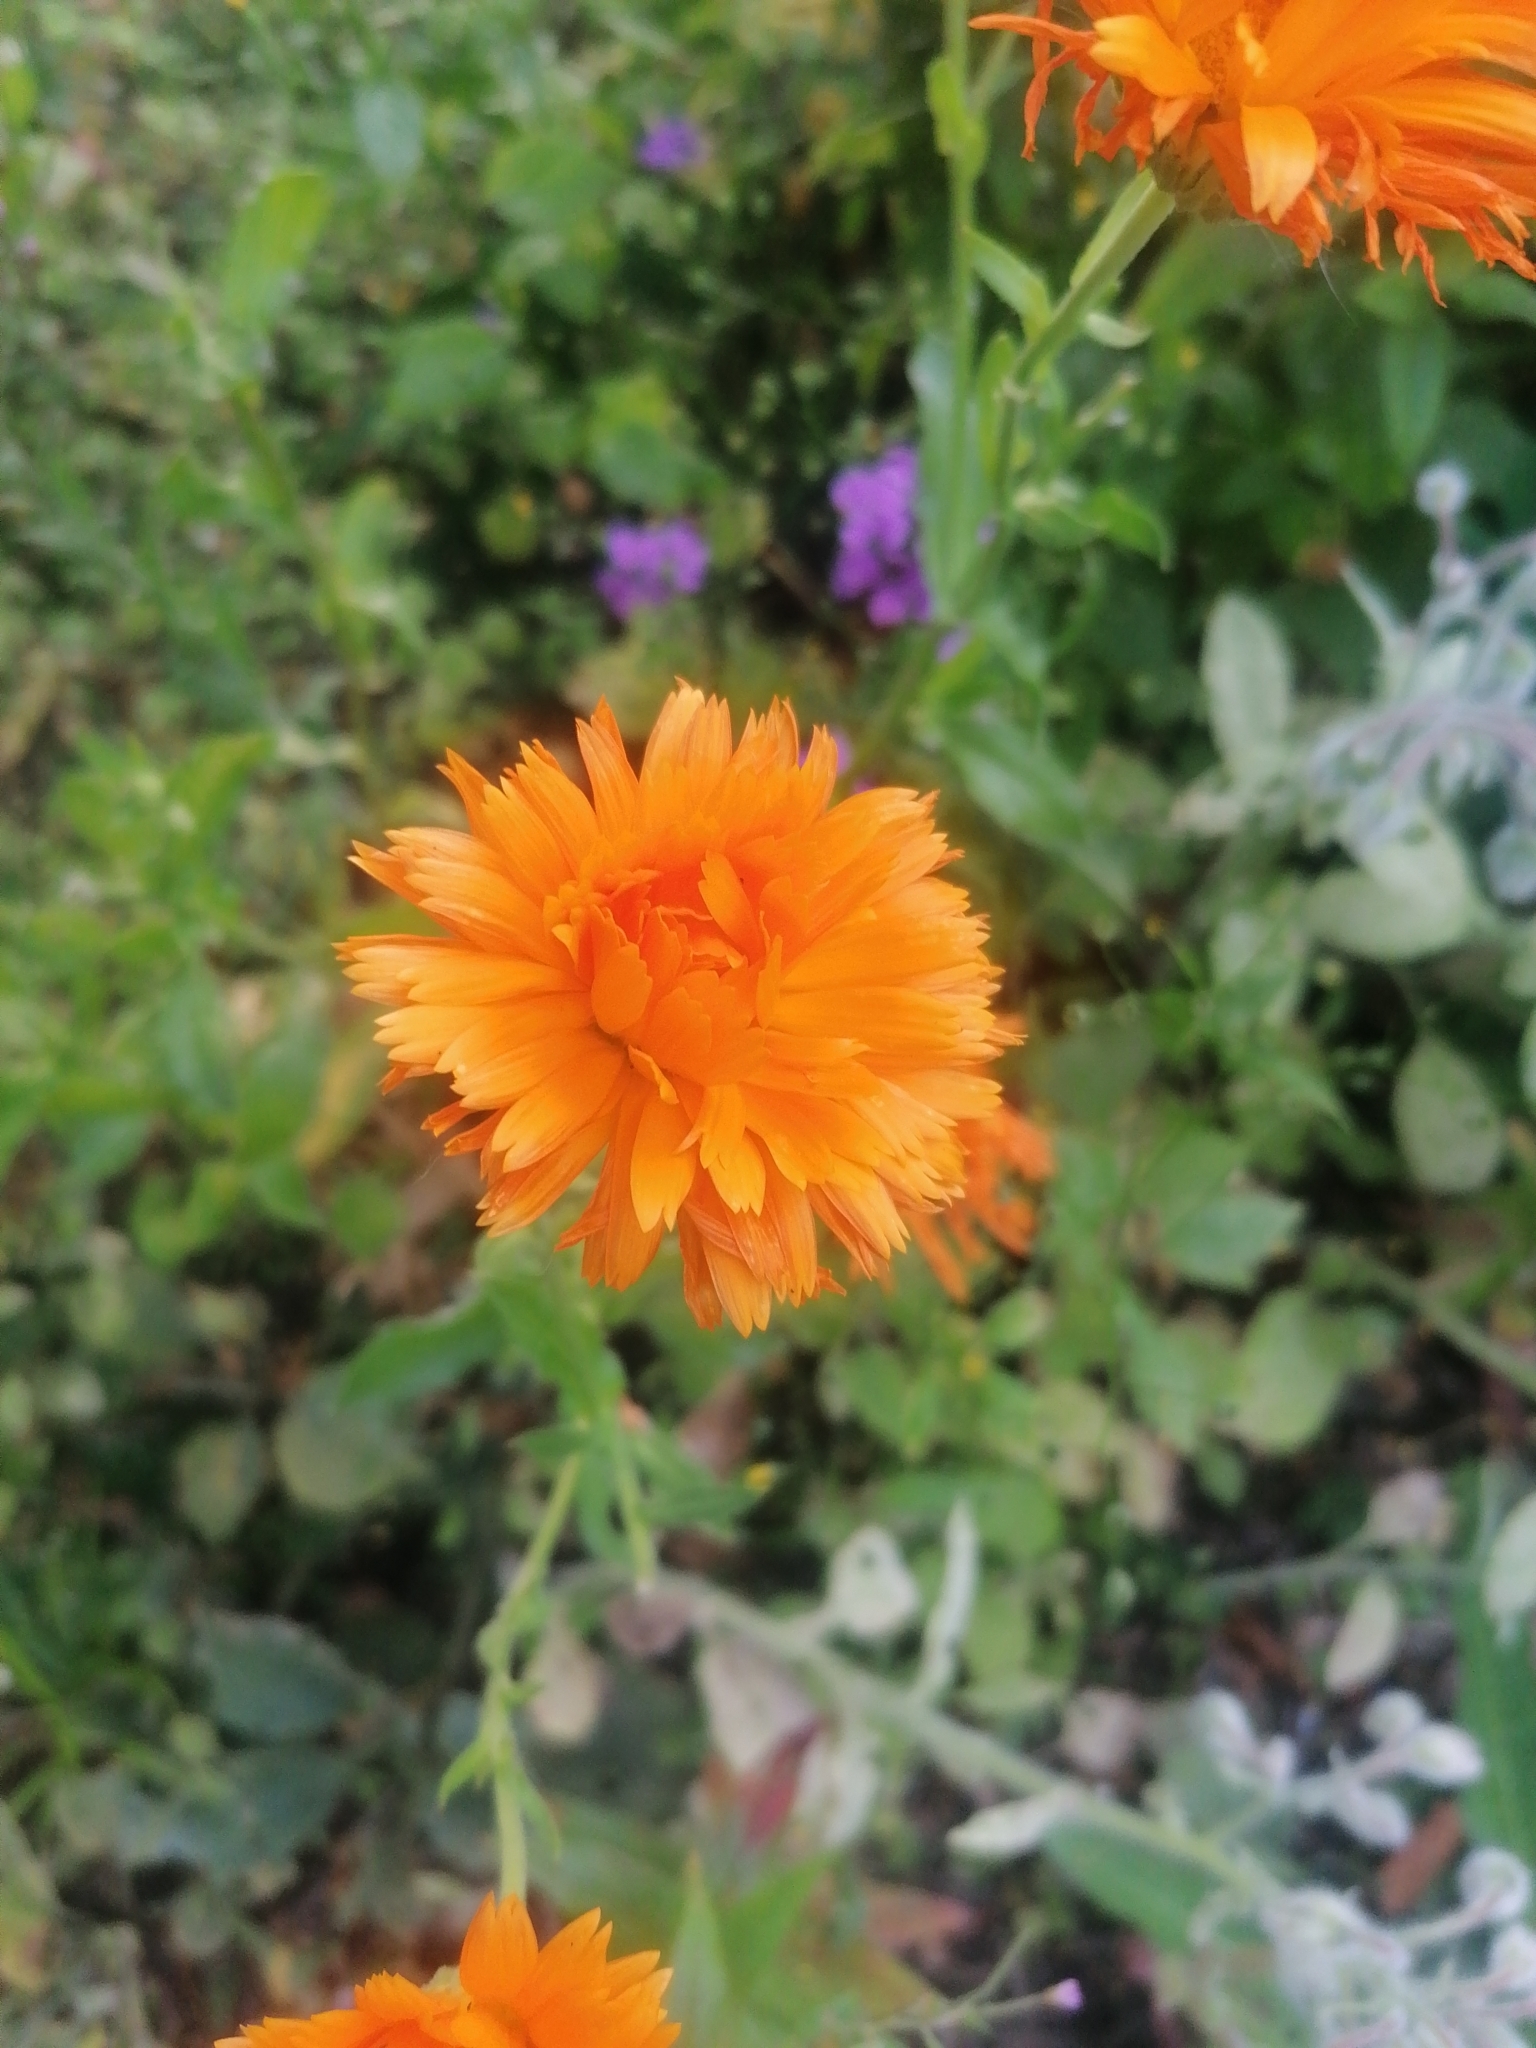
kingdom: Plantae
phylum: Tracheophyta
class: Magnoliopsida
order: Asterales
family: Asteraceae
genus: Pilosella
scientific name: Pilosella aurantiaca
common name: Fox-and-cubs
